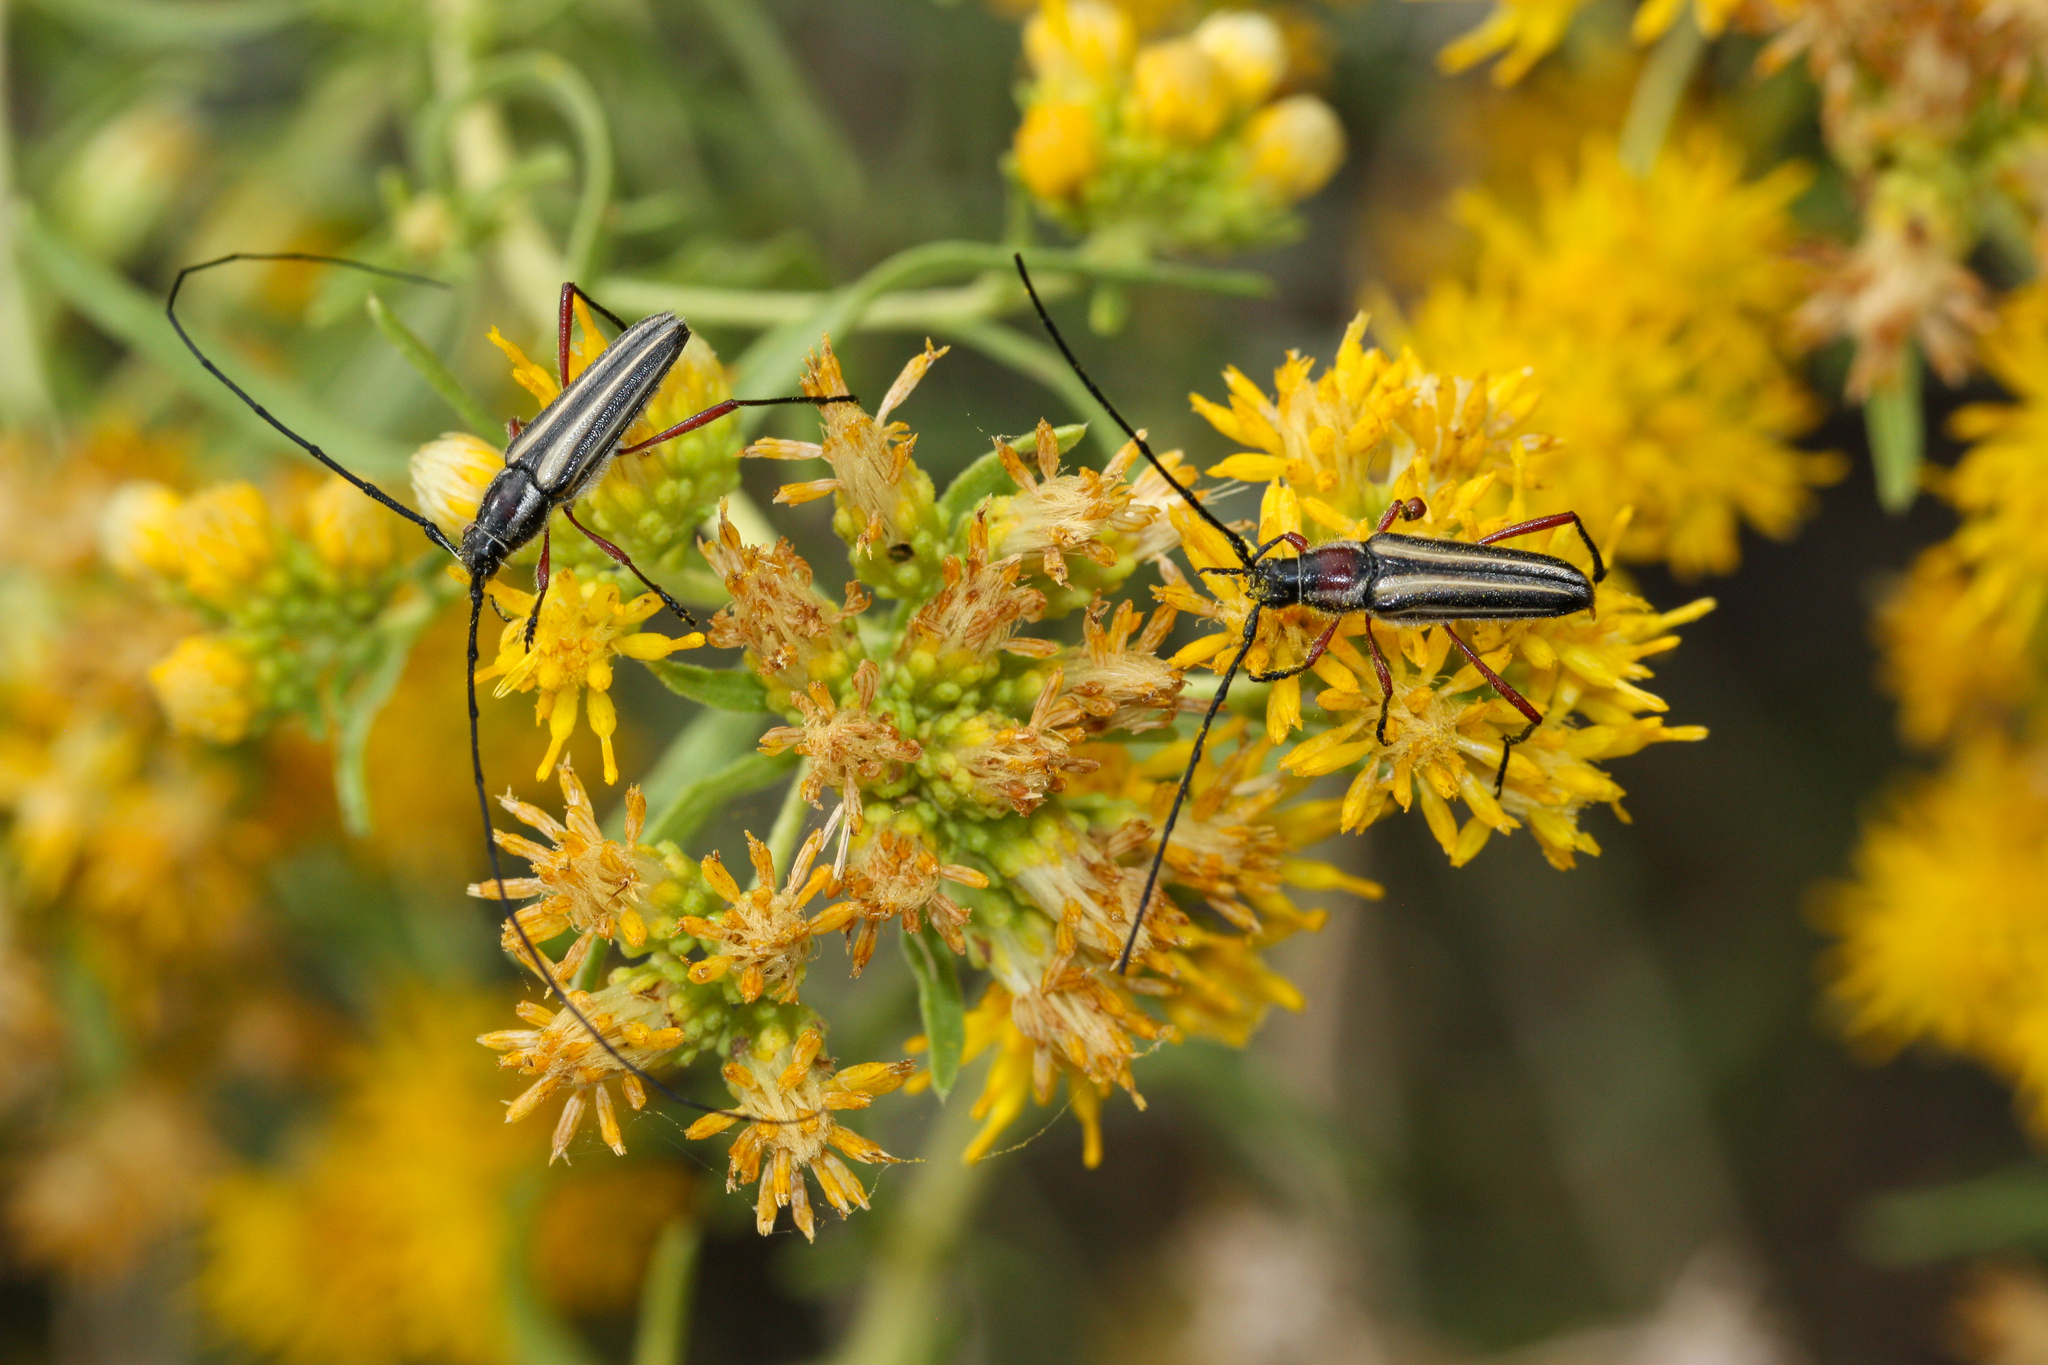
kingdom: Animalia
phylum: Arthropoda
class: Insecta
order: Coleoptera
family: Cerambycidae
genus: Sphaenothecus
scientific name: Sphaenothecus bilineatus
